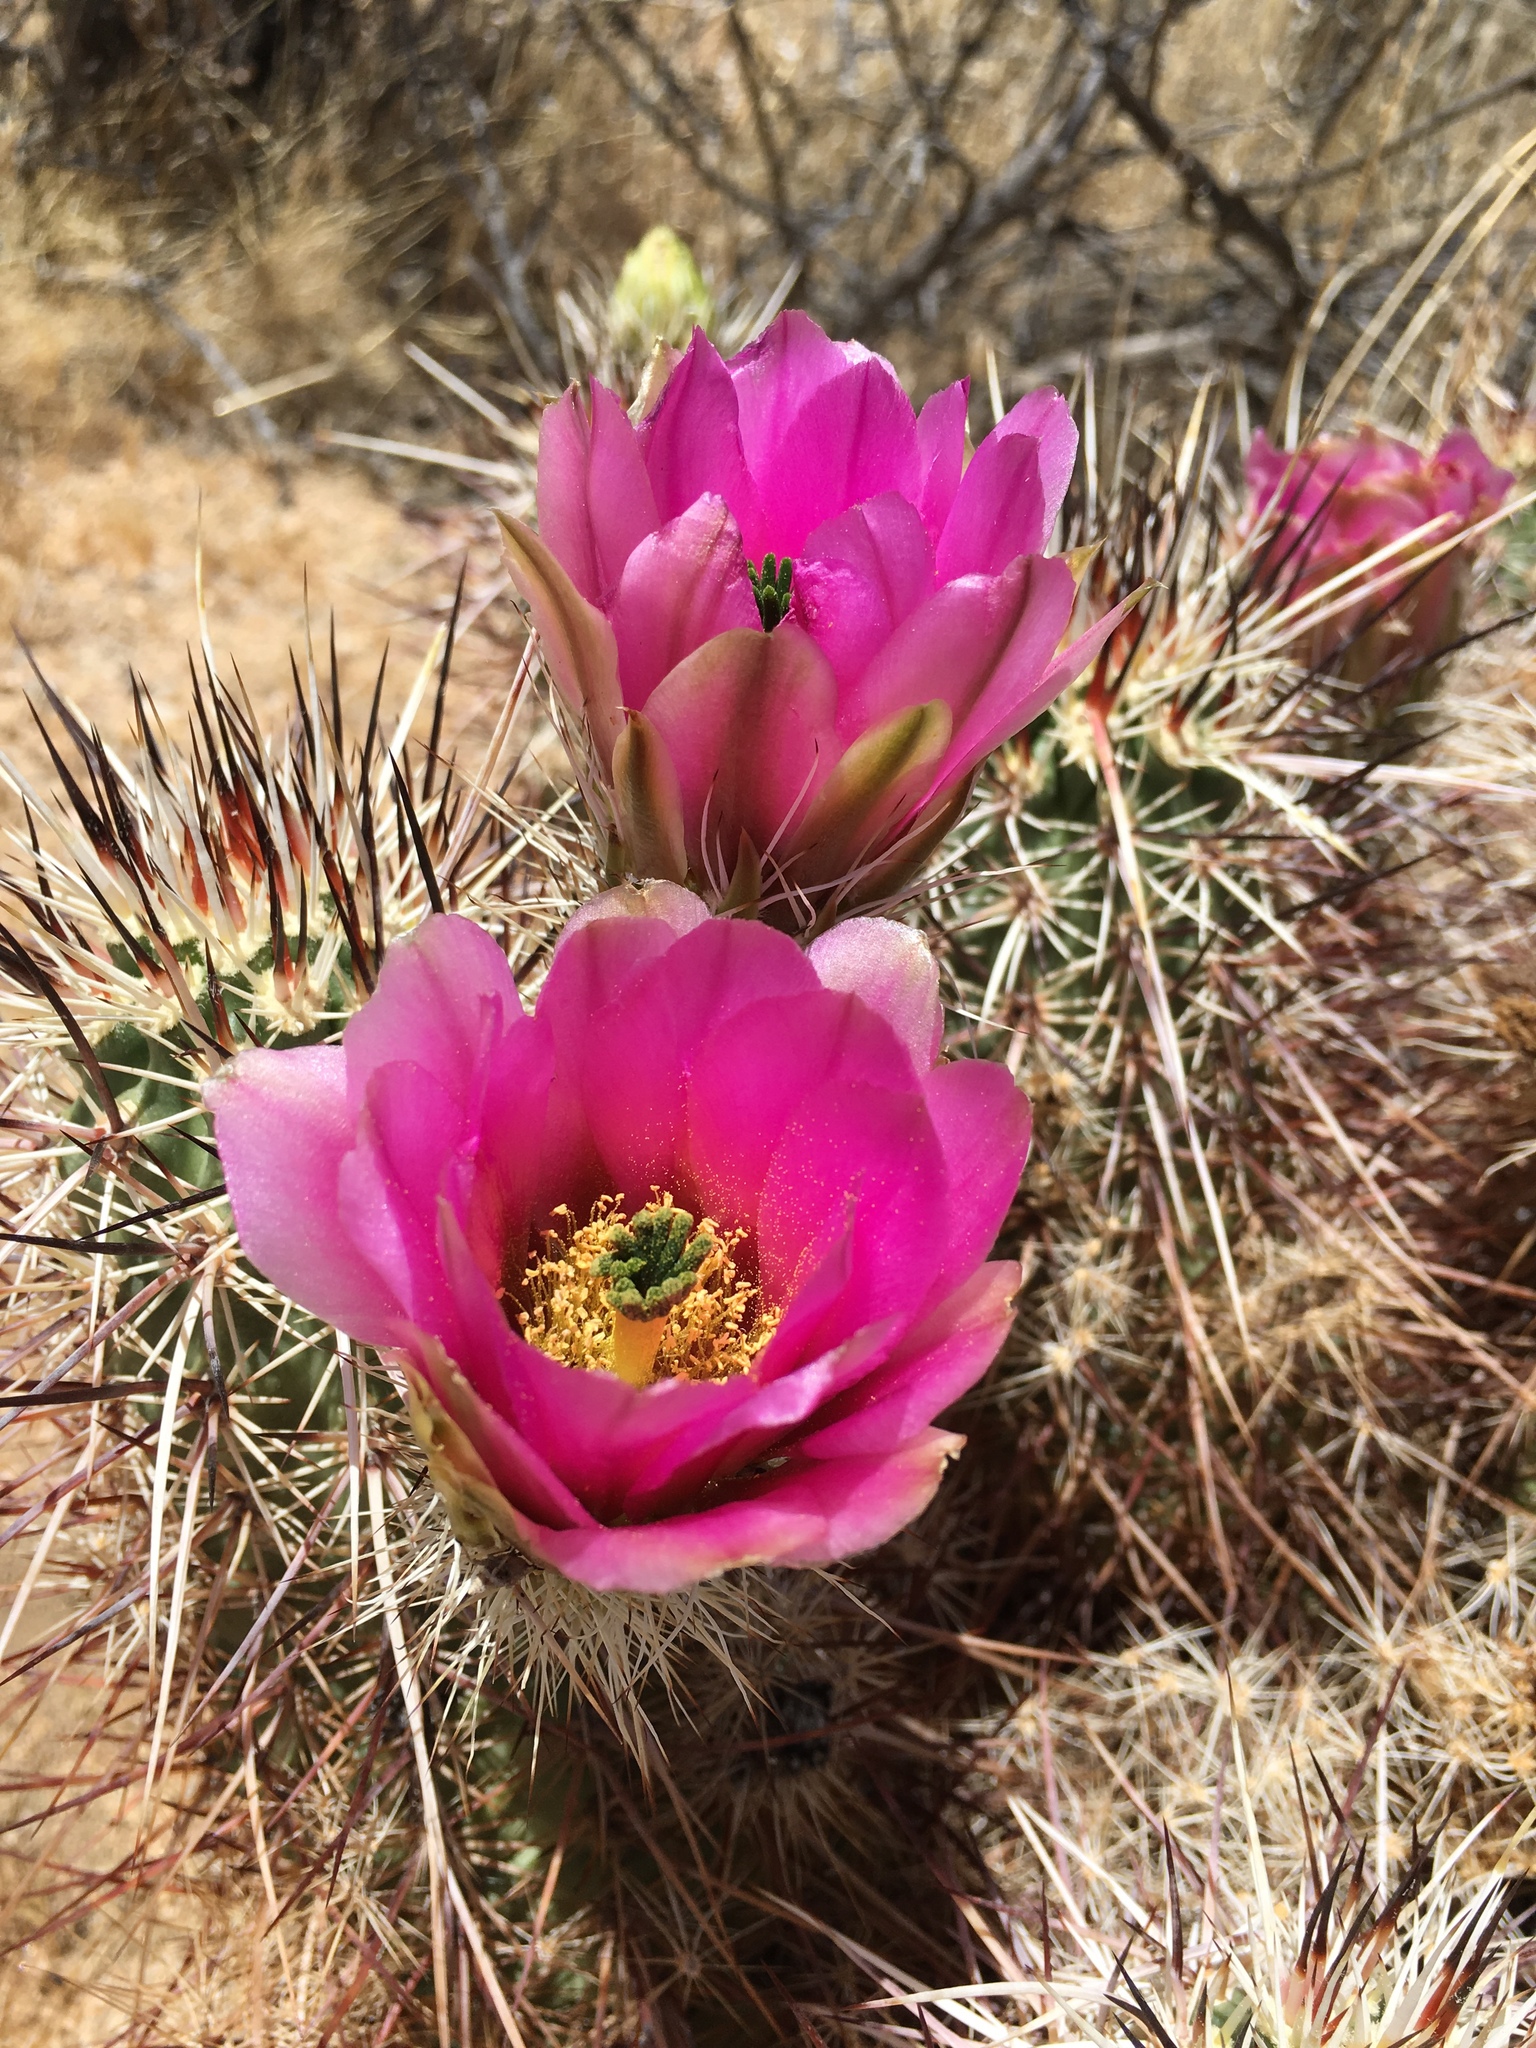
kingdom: Plantae
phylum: Tracheophyta
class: Magnoliopsida
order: Caryophyllales
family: Cactaceae
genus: Echinocereus
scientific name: Echinocereus engelmannii
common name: Engelmann's hedgehog cactus
